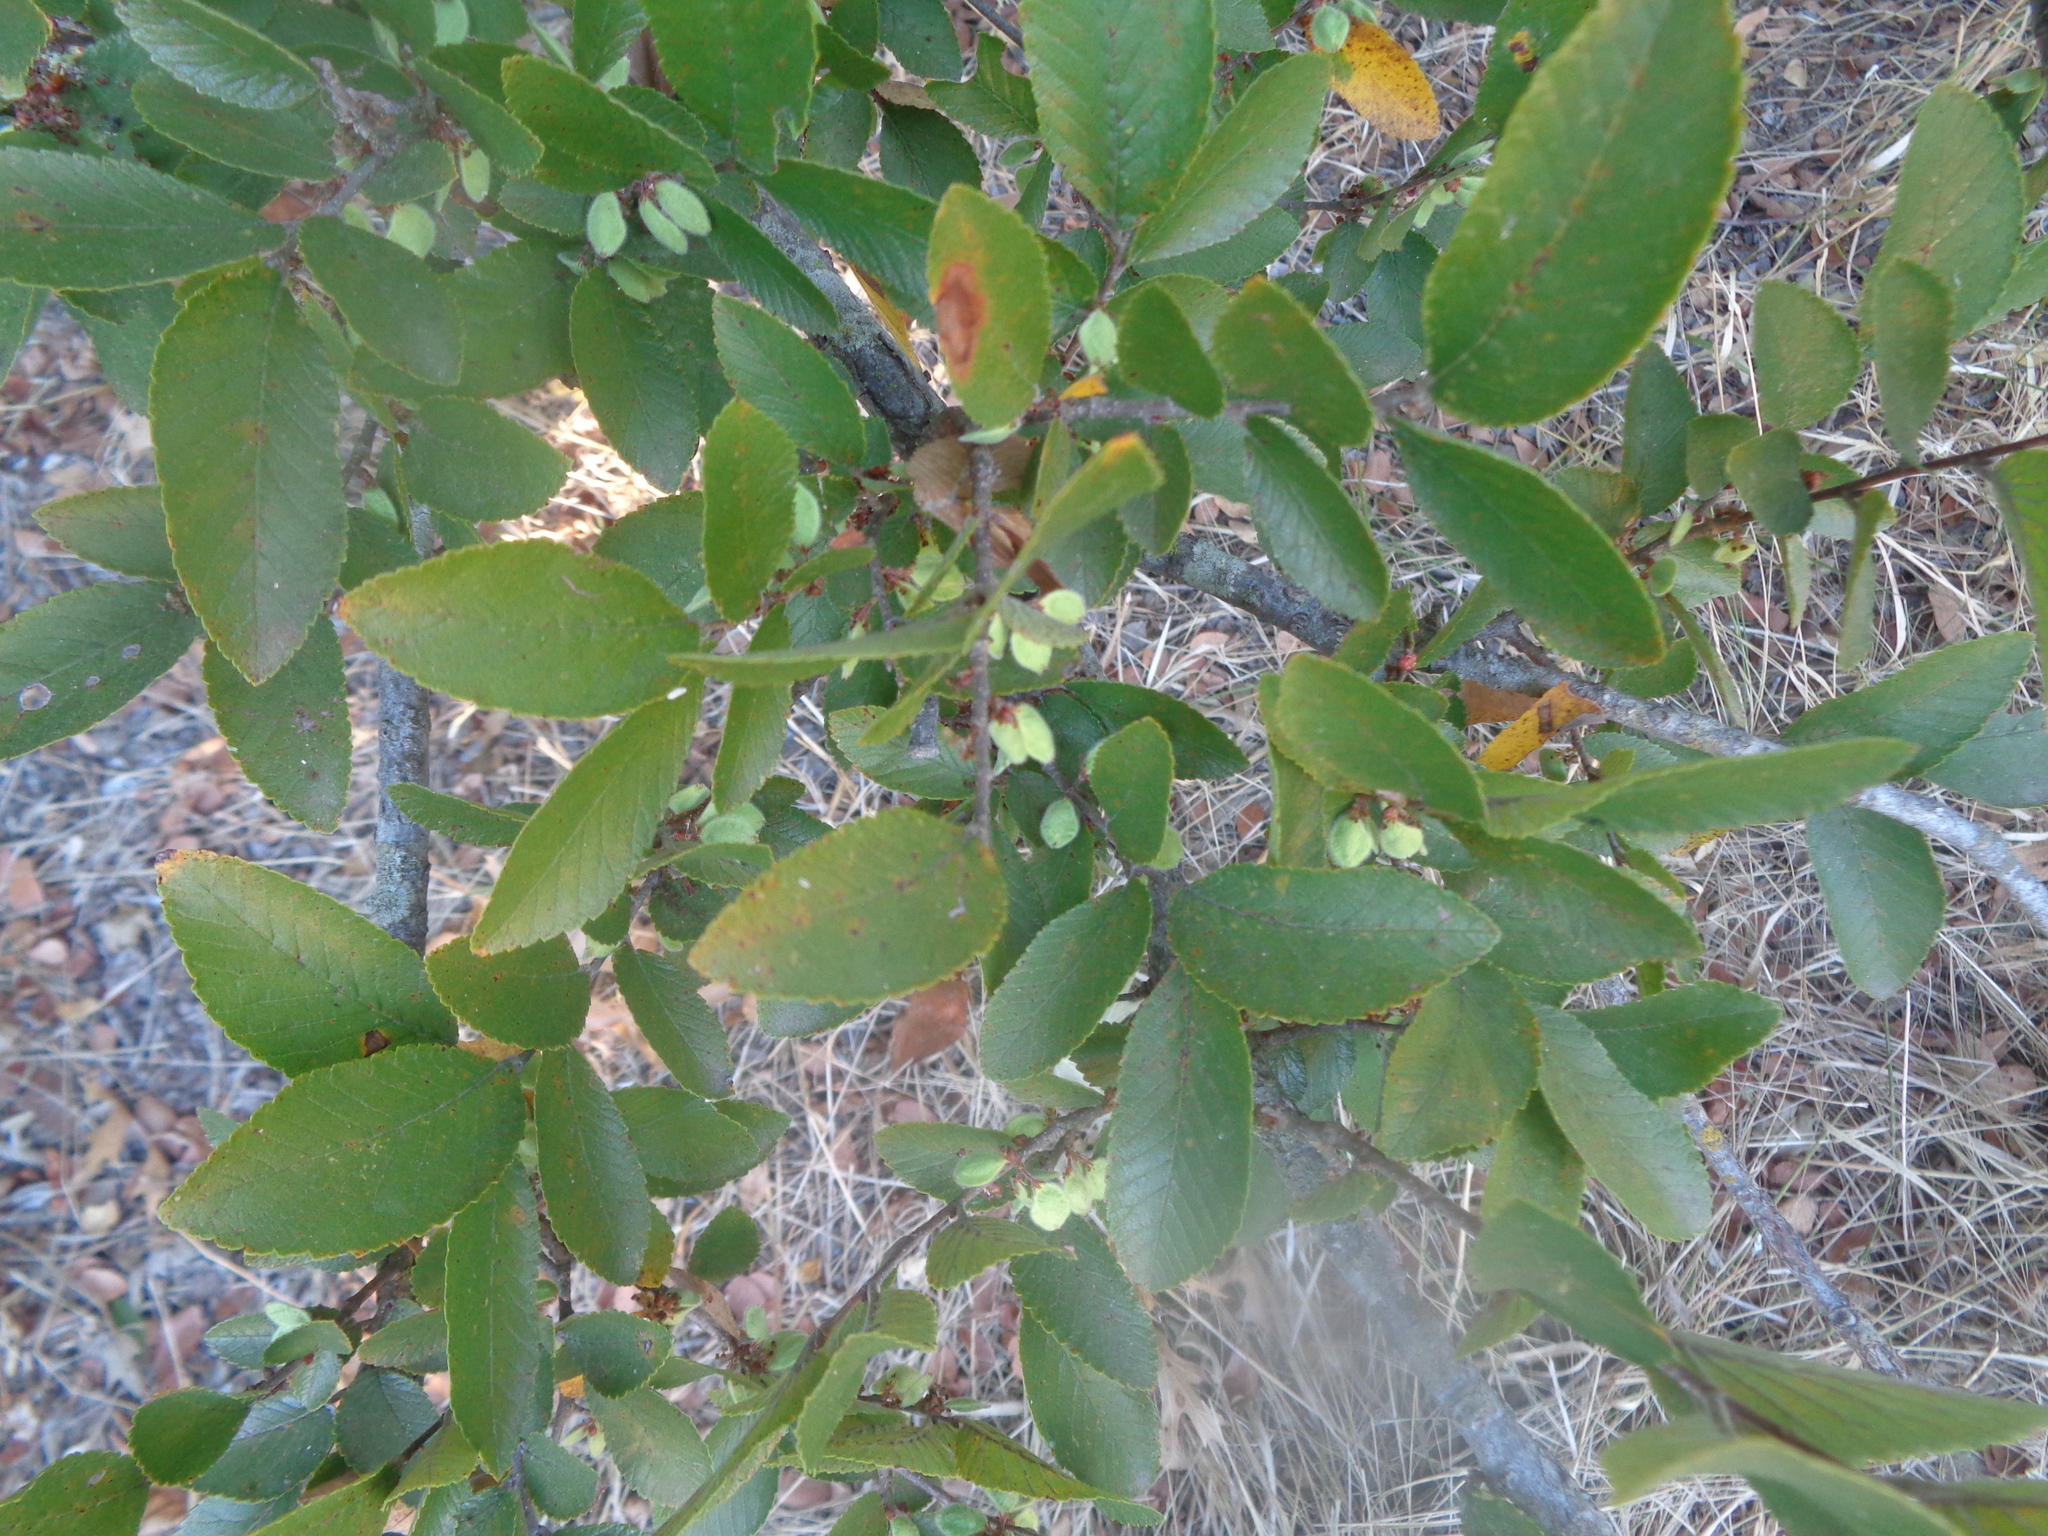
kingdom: Plantae
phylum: Tracheophyta
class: Magnoliopsida
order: Rosales
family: Ulmaceae
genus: Ulmus
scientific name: Ulmus crassifolia
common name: Basket elm
